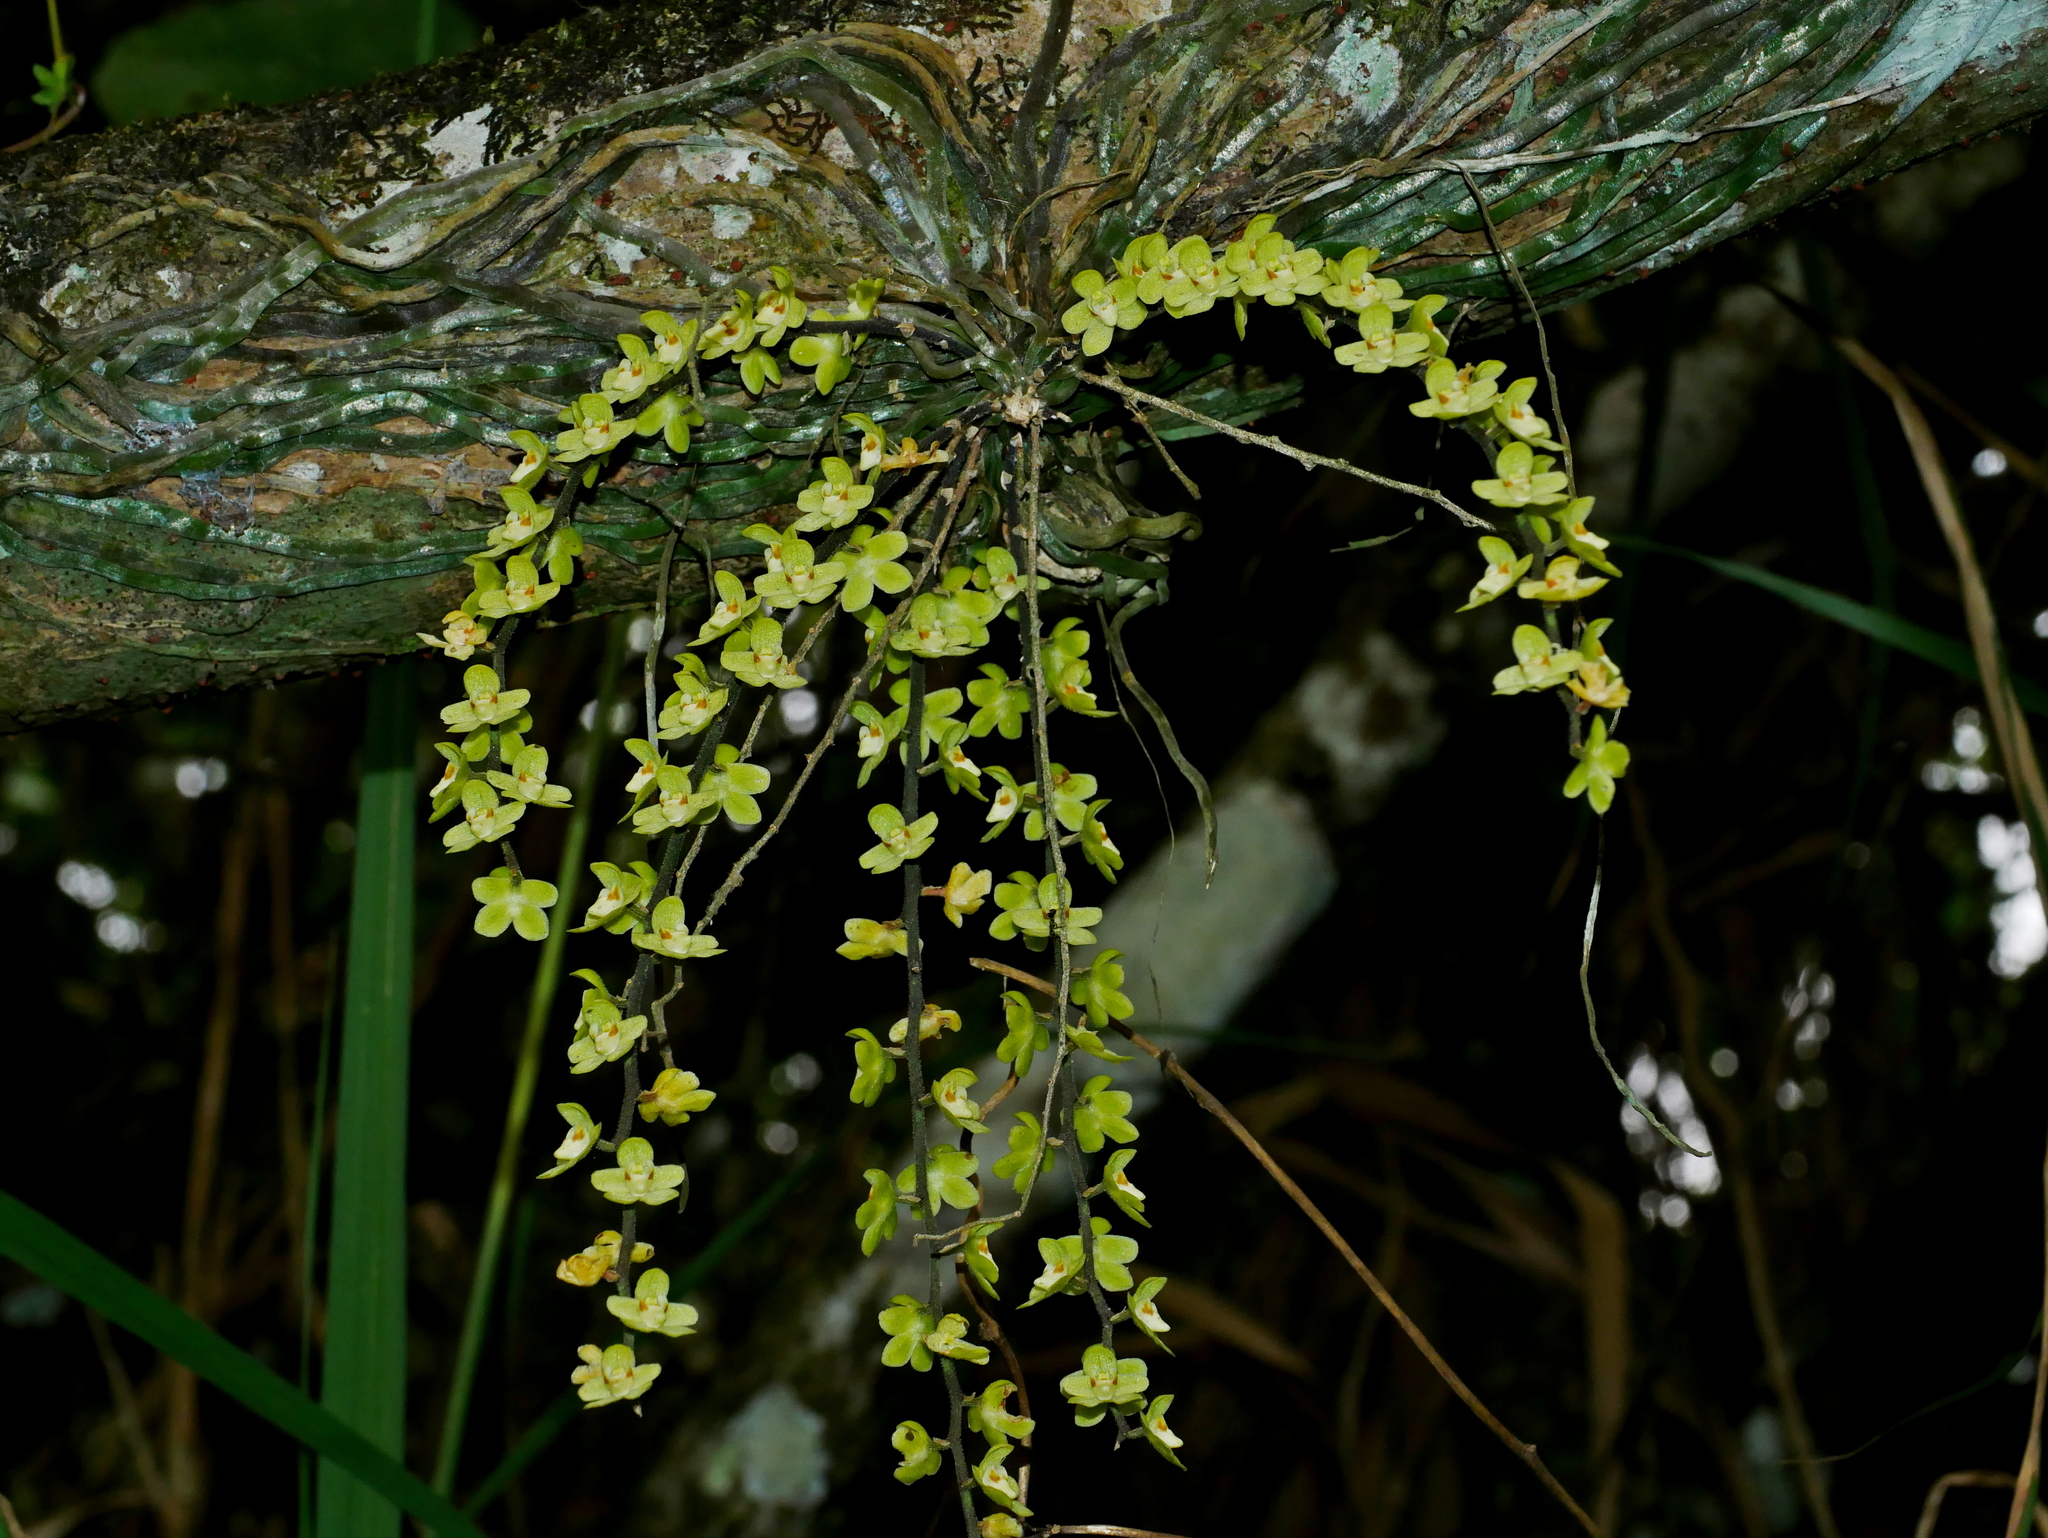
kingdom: Plantae
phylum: Tracheophyta
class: Liliopsida
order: Asparagales
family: Orchidaceae
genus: Chiloschista
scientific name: Chiloschista segawae
